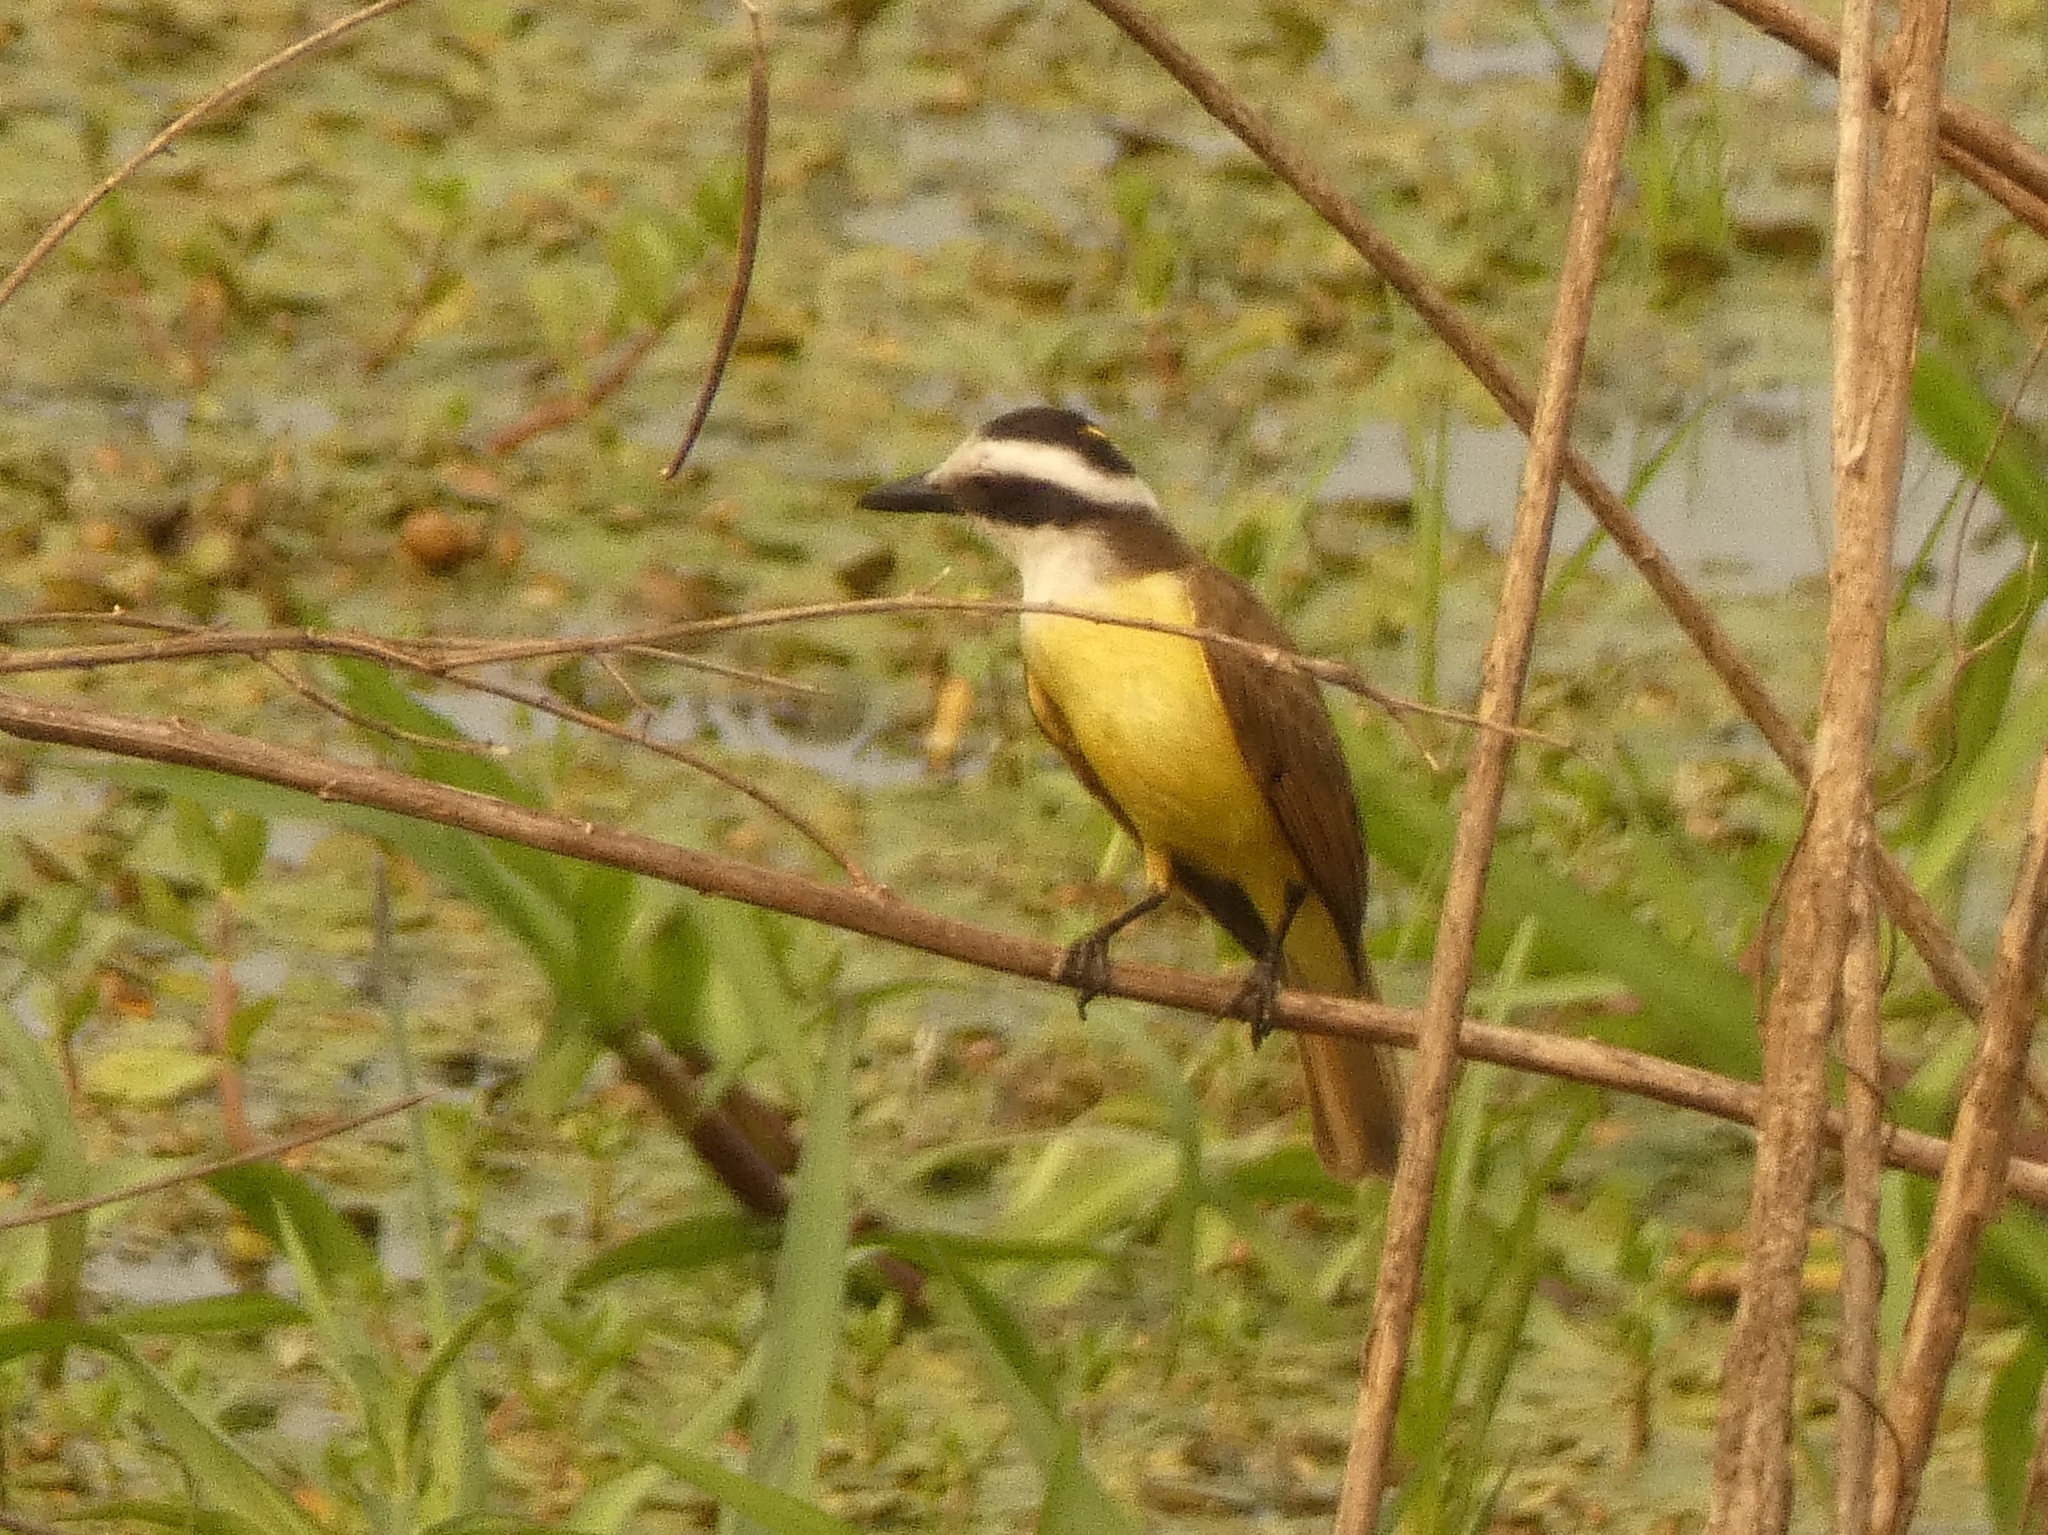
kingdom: Animalia
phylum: Chordata
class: Aves
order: Passeriformes
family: Tyrannidae
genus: Pitangus
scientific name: Pitangus sulphuratus
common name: Great kiskadee
